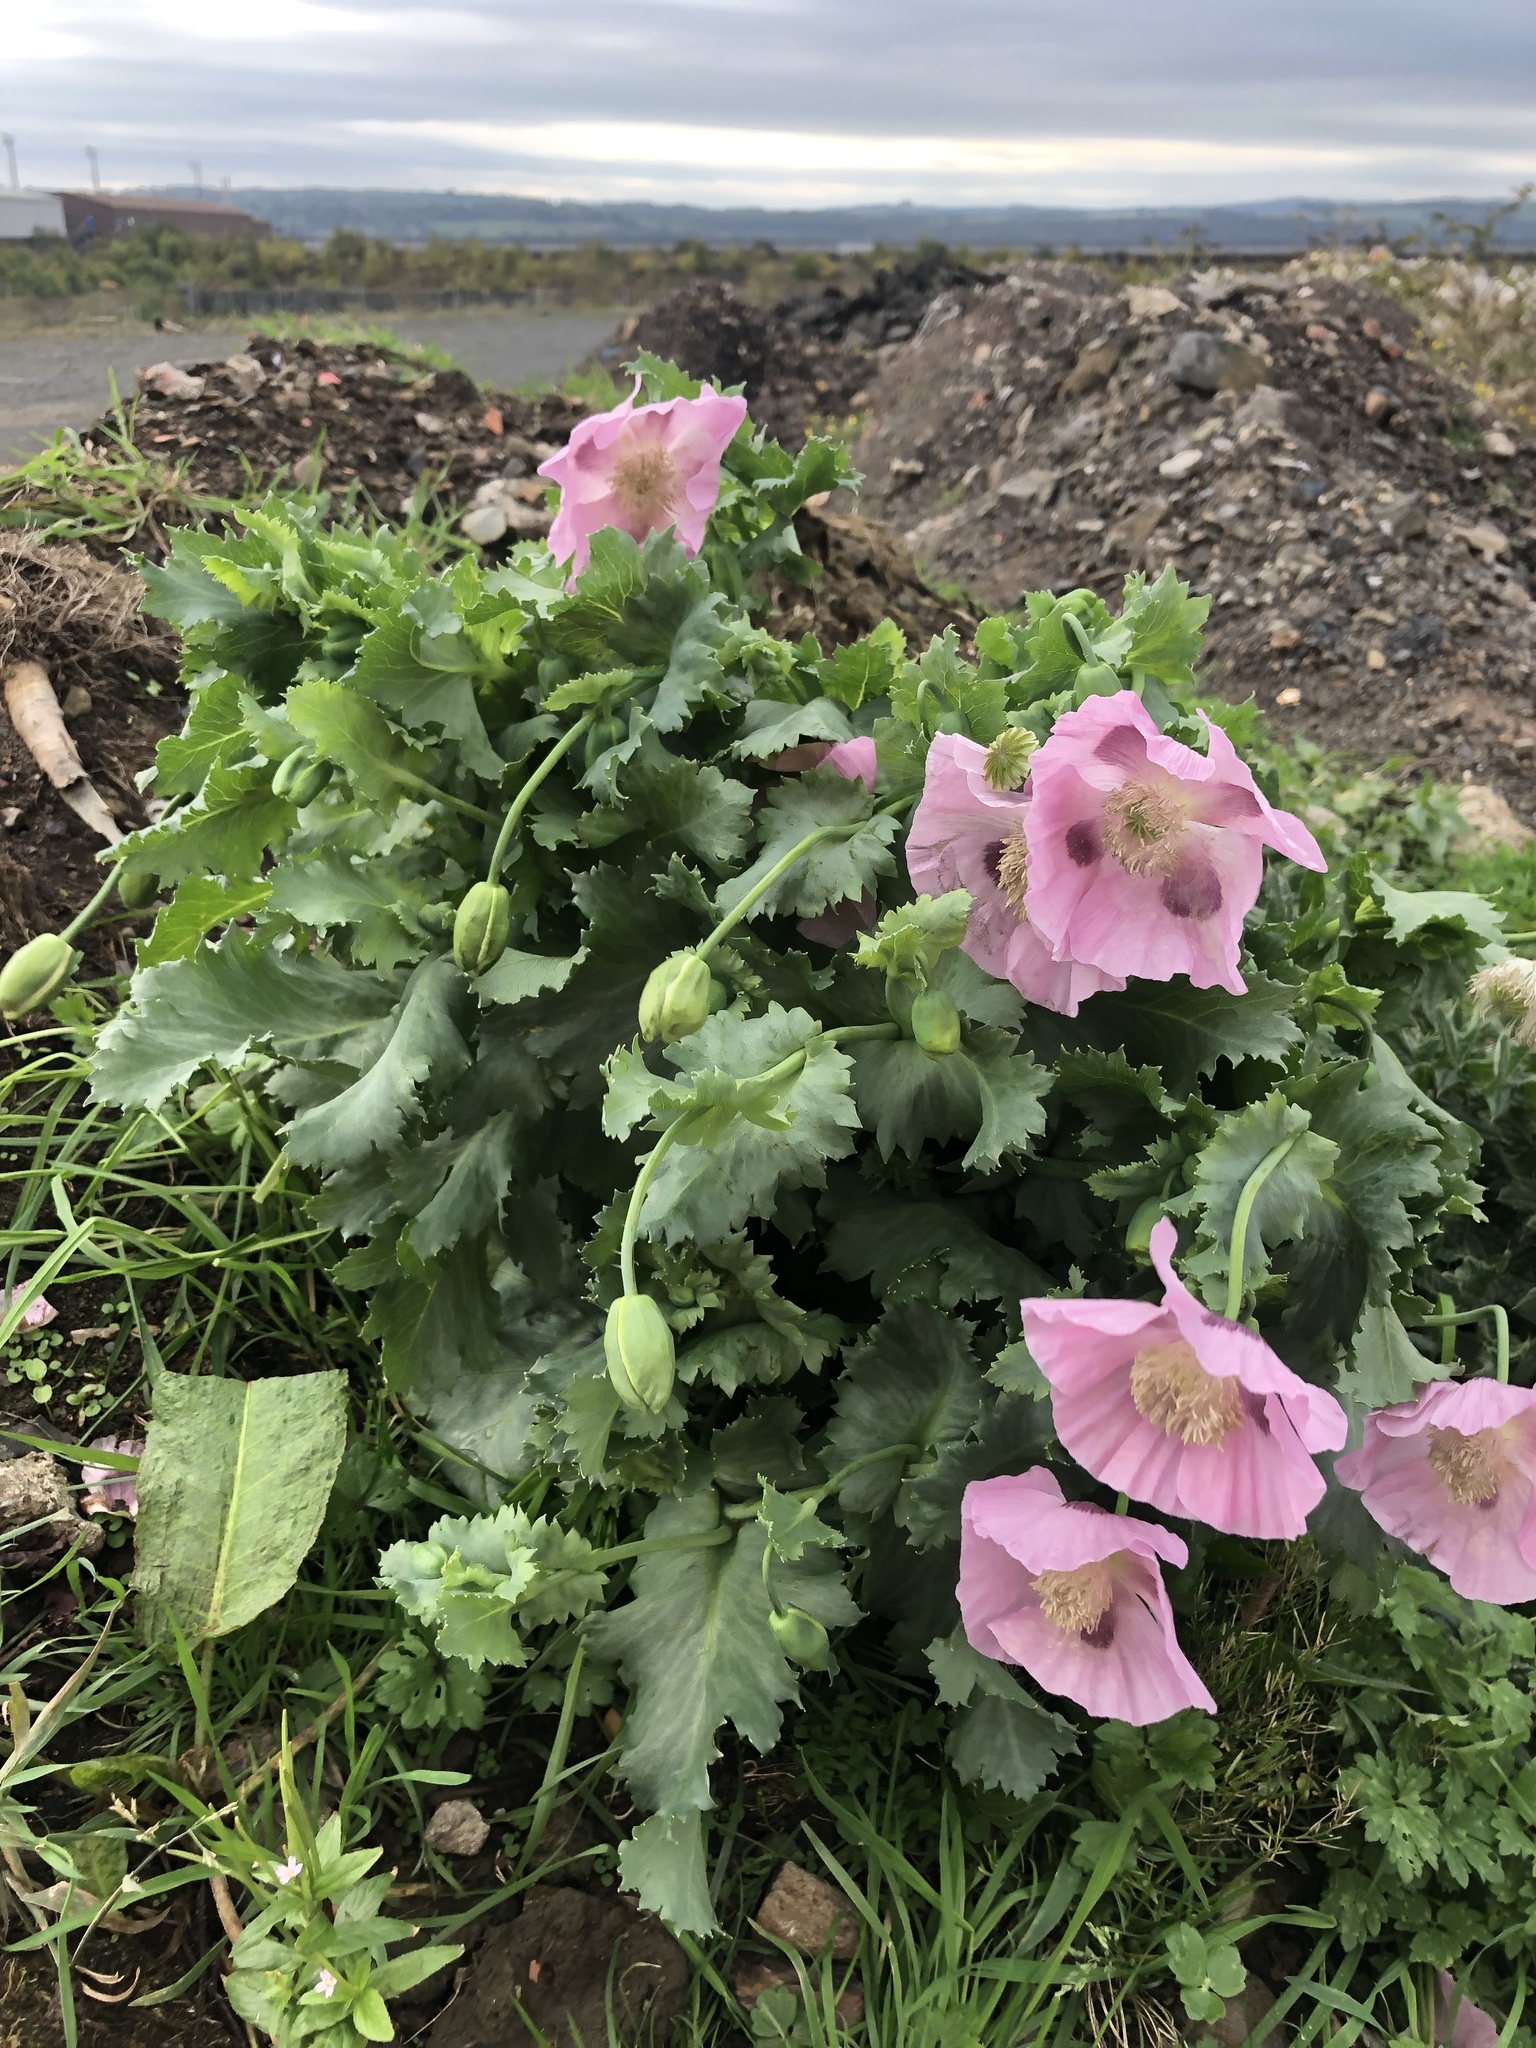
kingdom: Plantae
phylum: Tracheophyta
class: Magnoliopsida
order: Ranunculales
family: Papaveraceae
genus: Papaver
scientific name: Papaver somniferum
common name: Opium poppy
